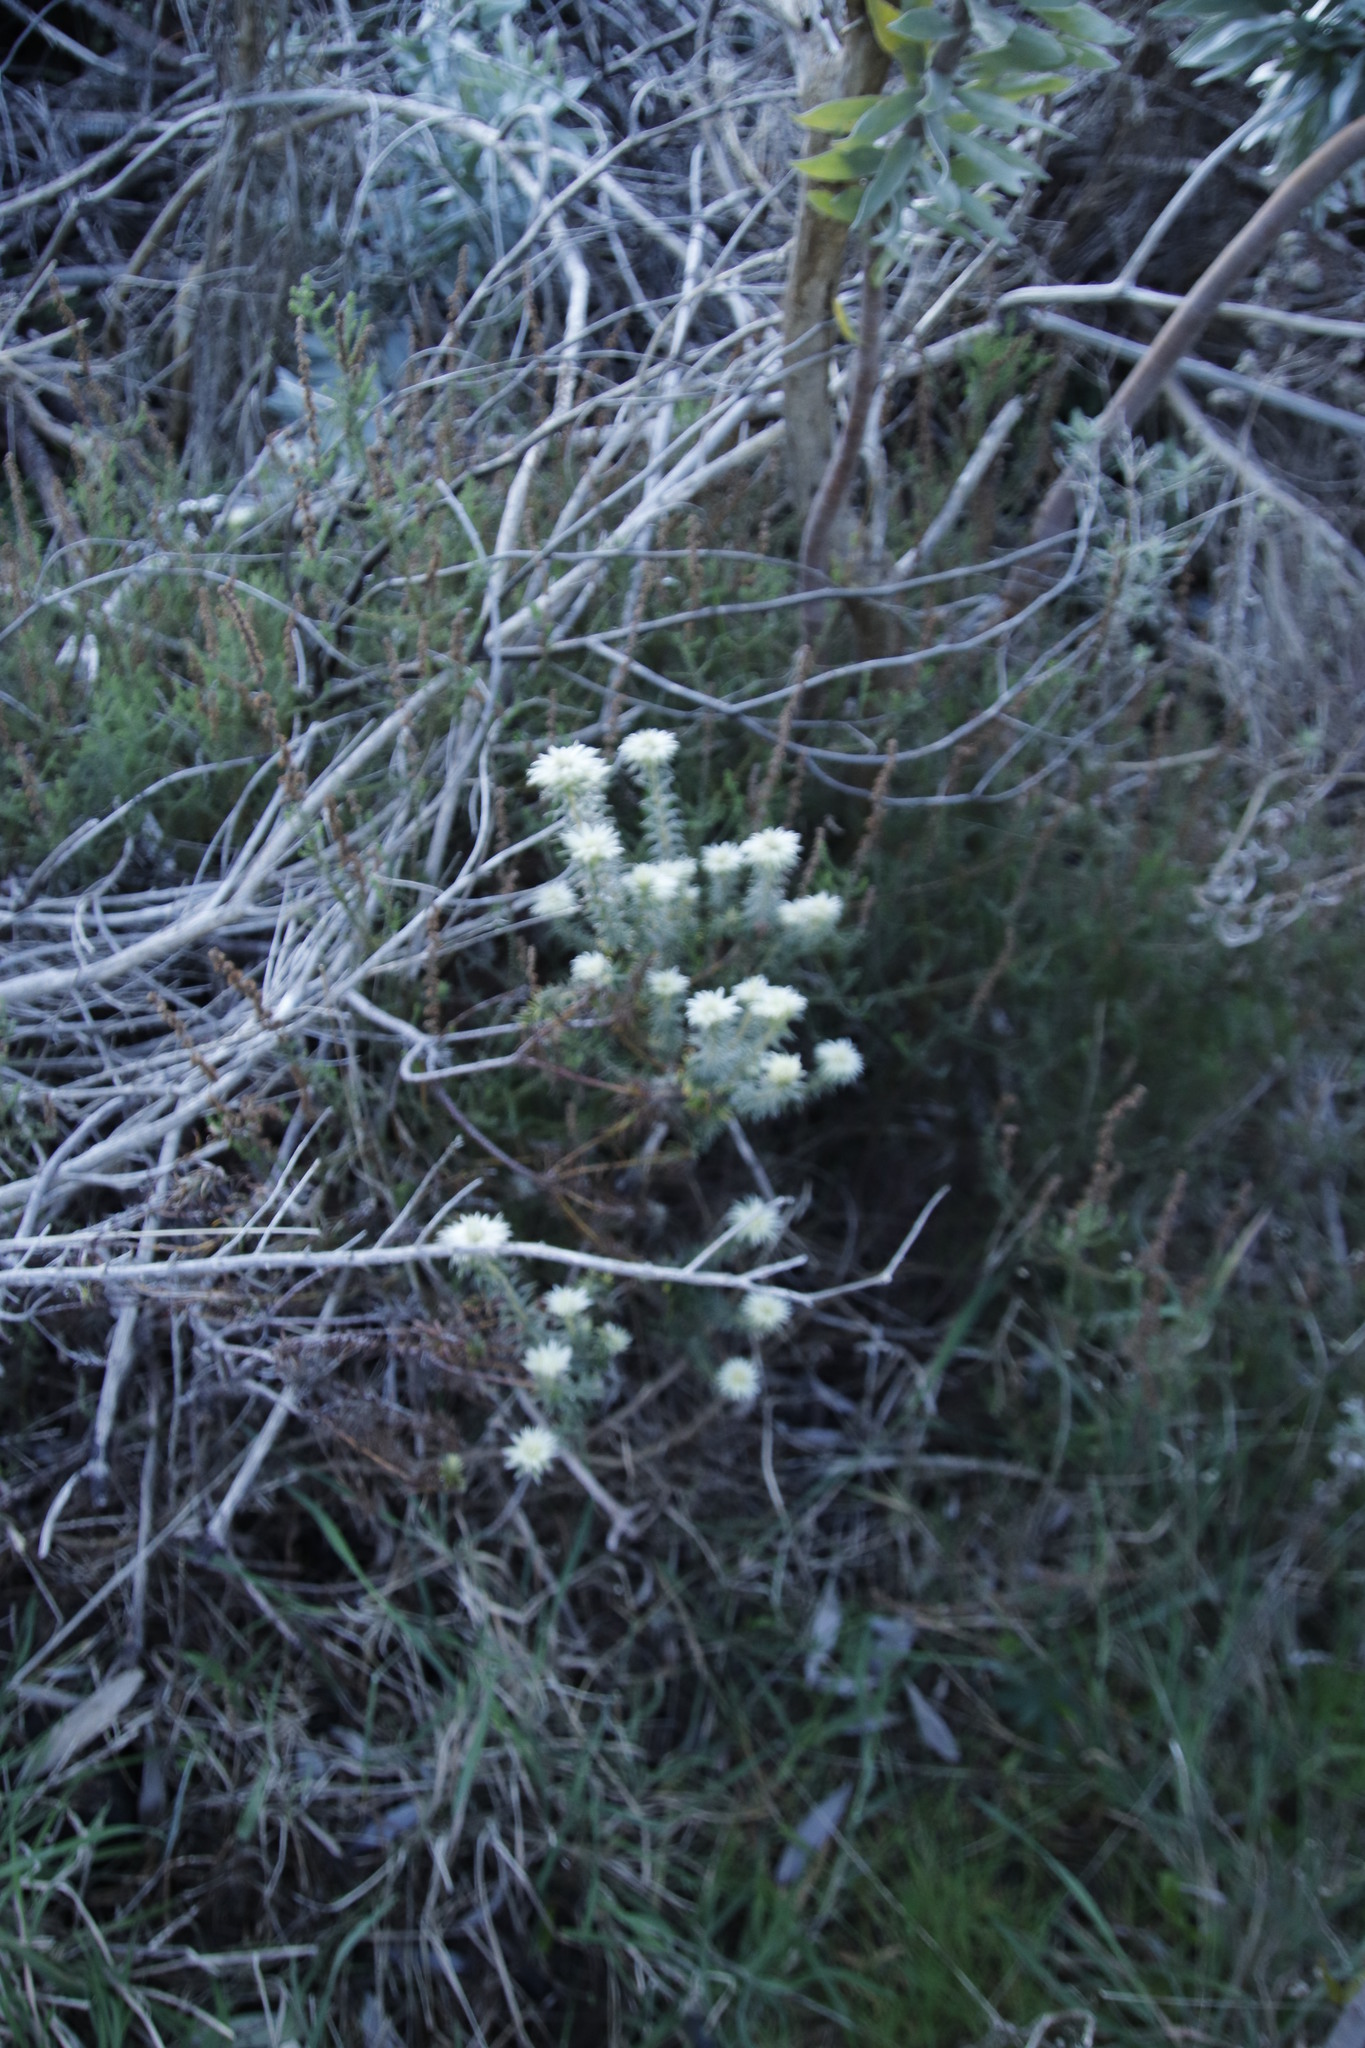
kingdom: Plantae
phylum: Tracheophyta
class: Magnoliopsida
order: Rosales
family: Rhamnaceae
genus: Phylica
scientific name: Phylica pubescens
